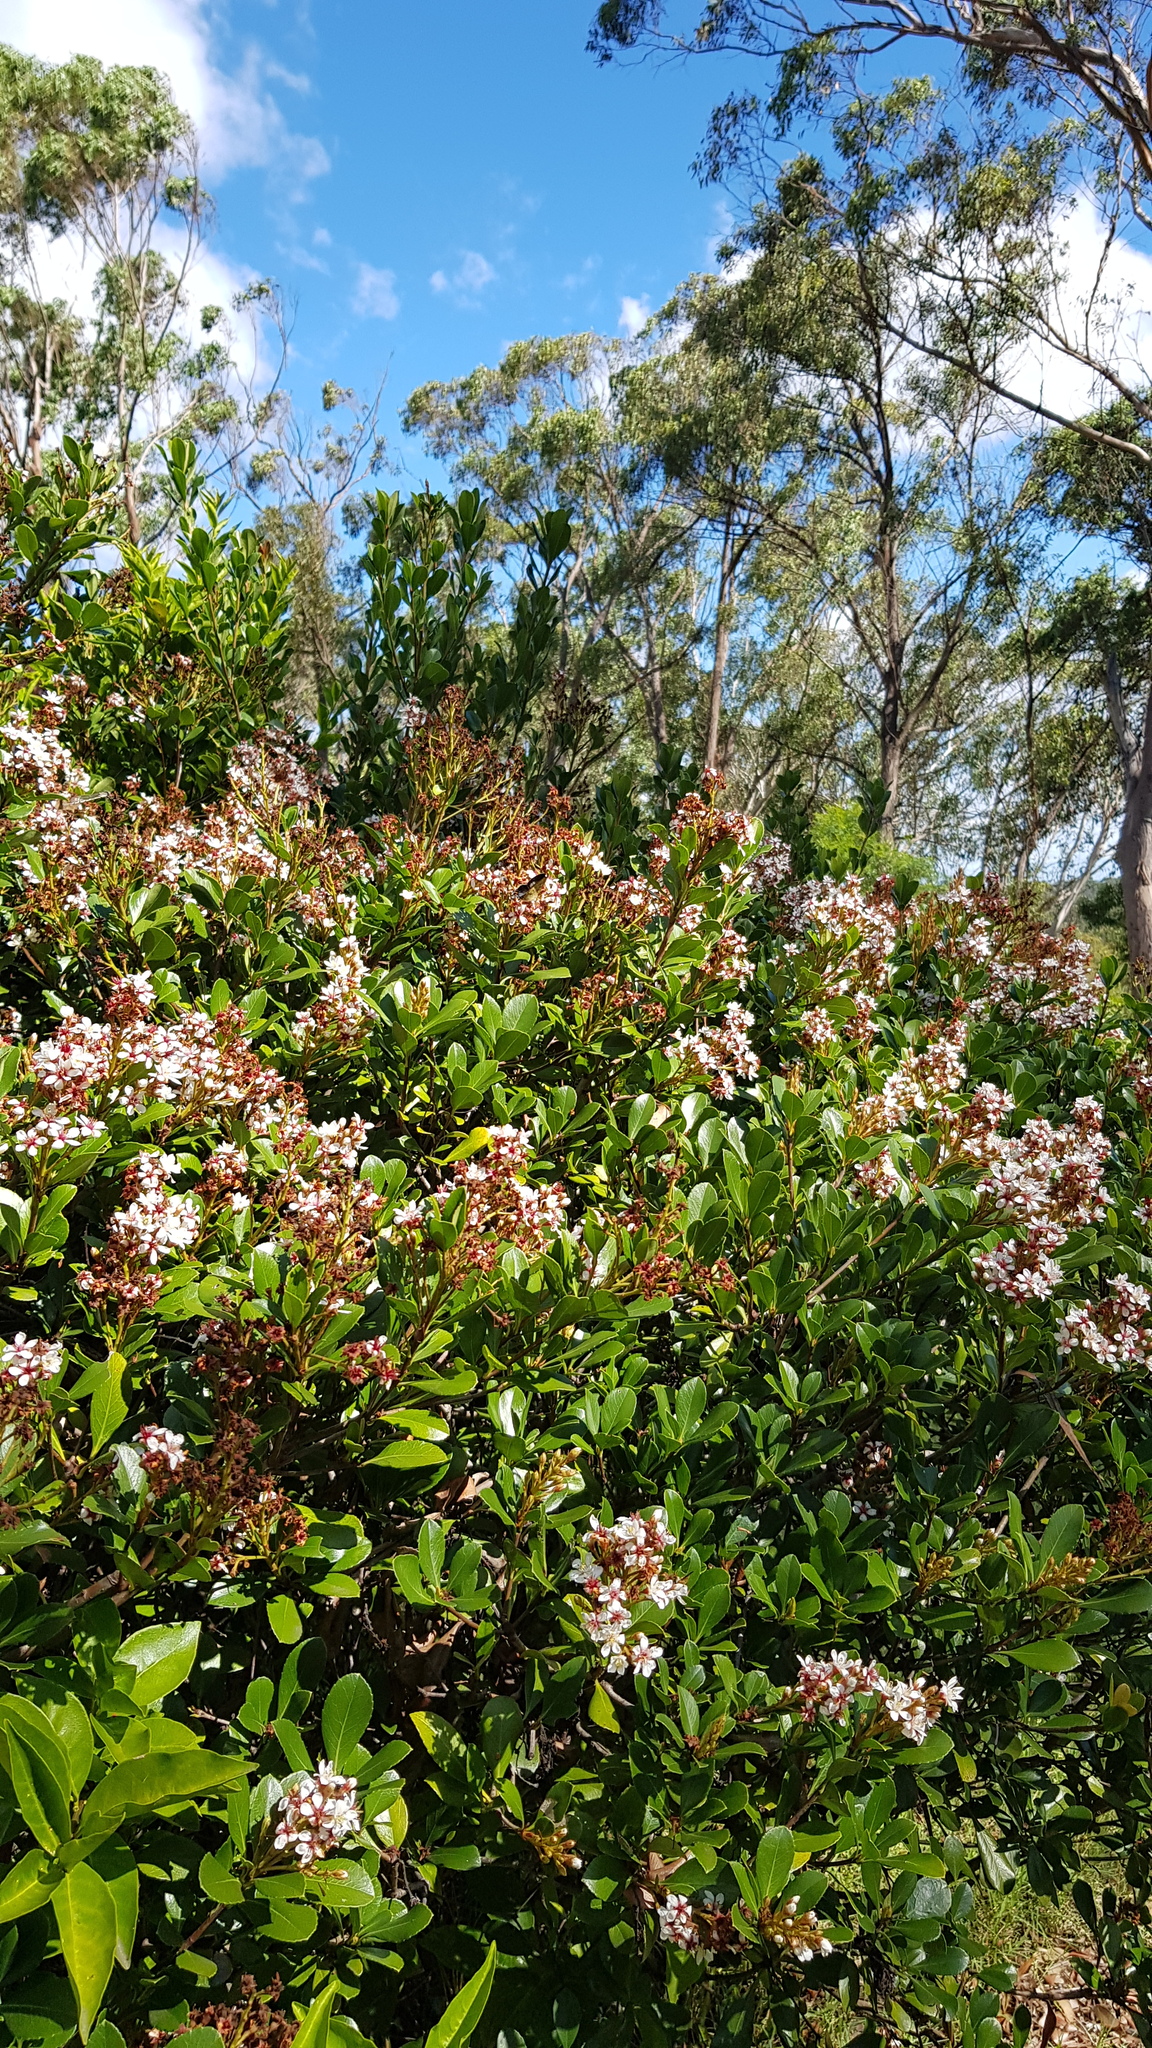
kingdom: Animalia
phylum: Arthropoda
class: Insecta
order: Lepidoptera
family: Lycaenidae
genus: Jalmenus
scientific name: Jalmenus evagoras
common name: Common imperial blue
